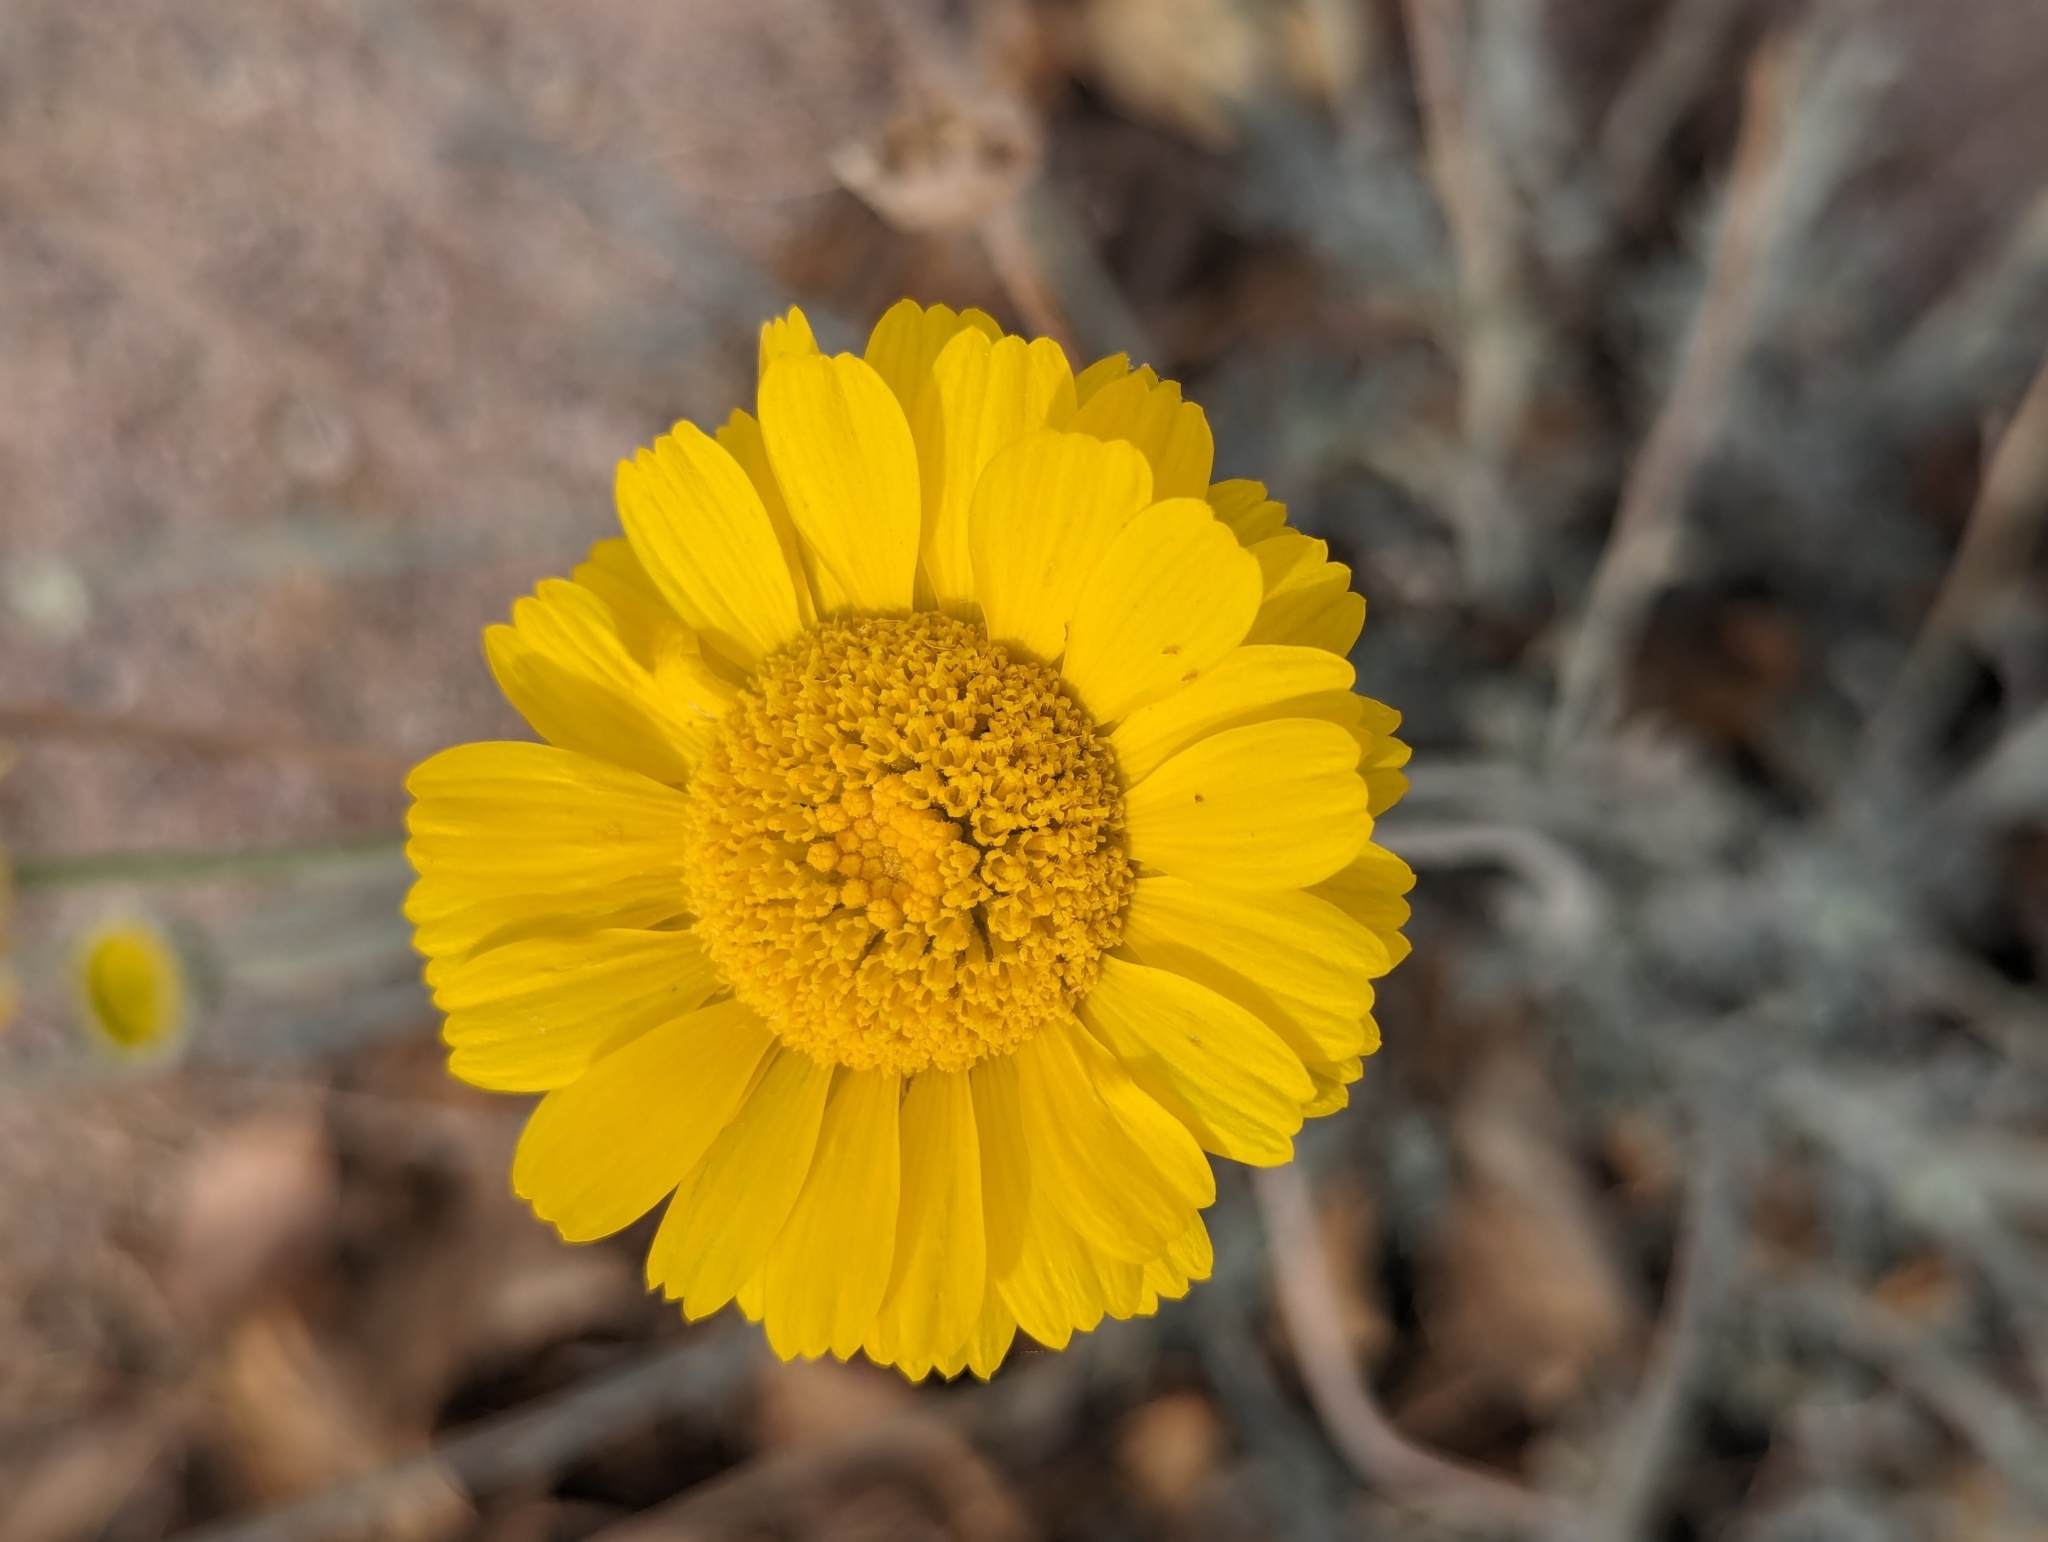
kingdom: Plantae
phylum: Tracheophyta
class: Magnoliopsida
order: Asterales
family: Asteraceae
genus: Baileya
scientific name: Baileya multiradiata
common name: Desert-marigold
